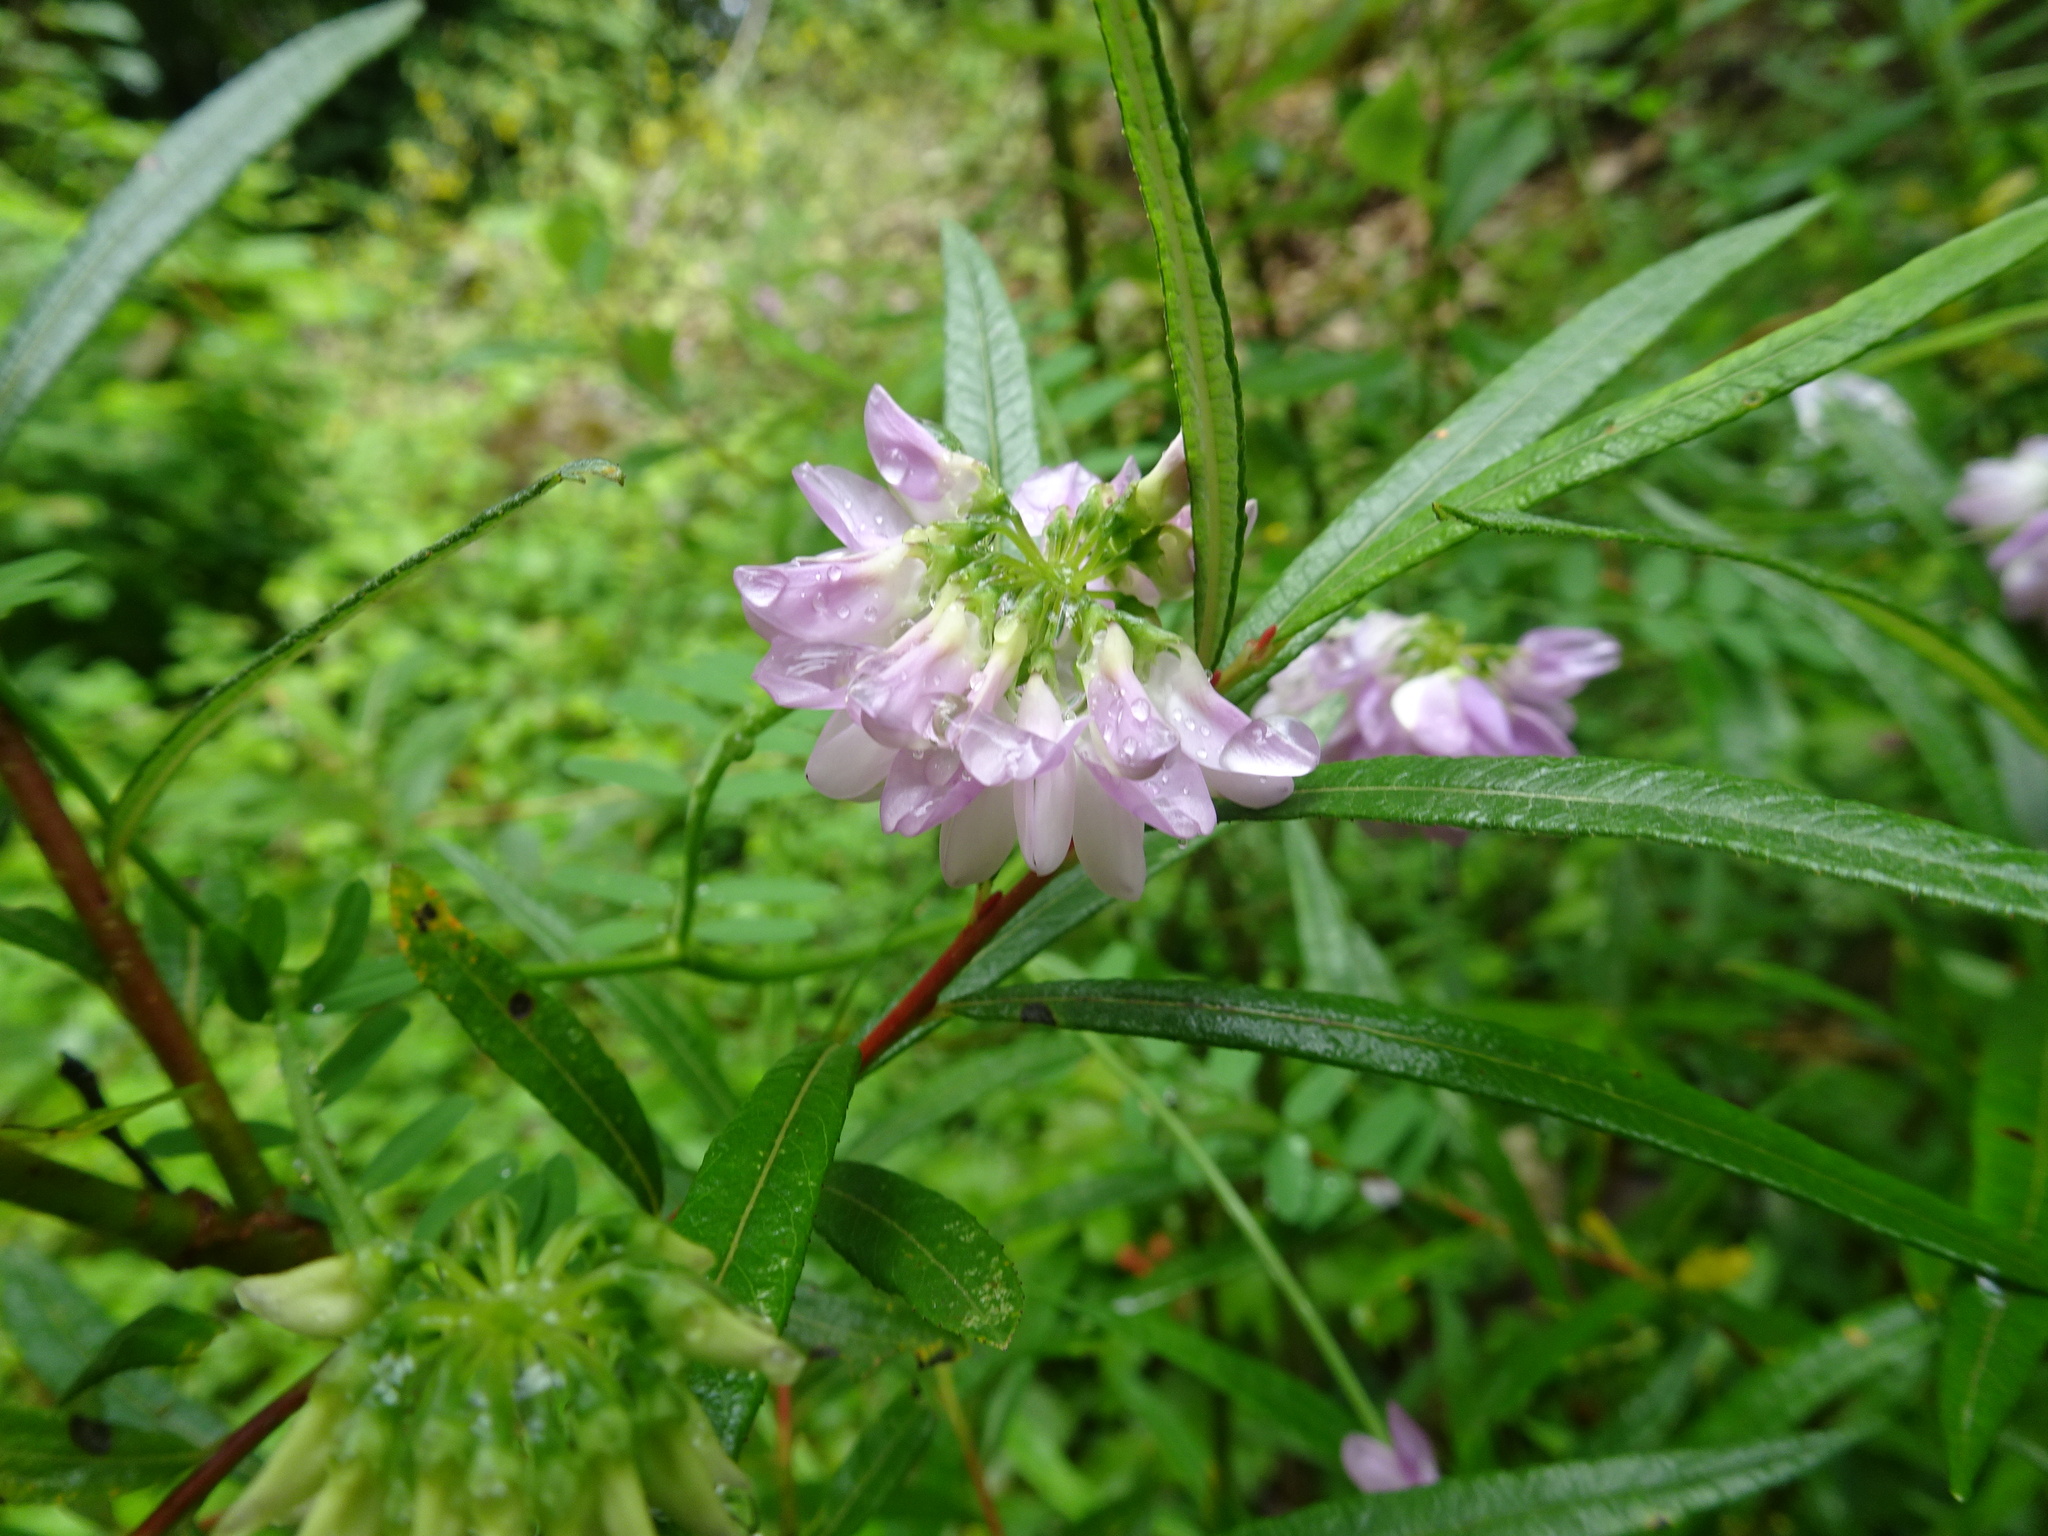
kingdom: Plantae
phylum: Tracheophyta
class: Magnoliopsida
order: Fabales
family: Fabaceae
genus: Coronilla
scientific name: Coronilla varia
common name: Crownvetch
